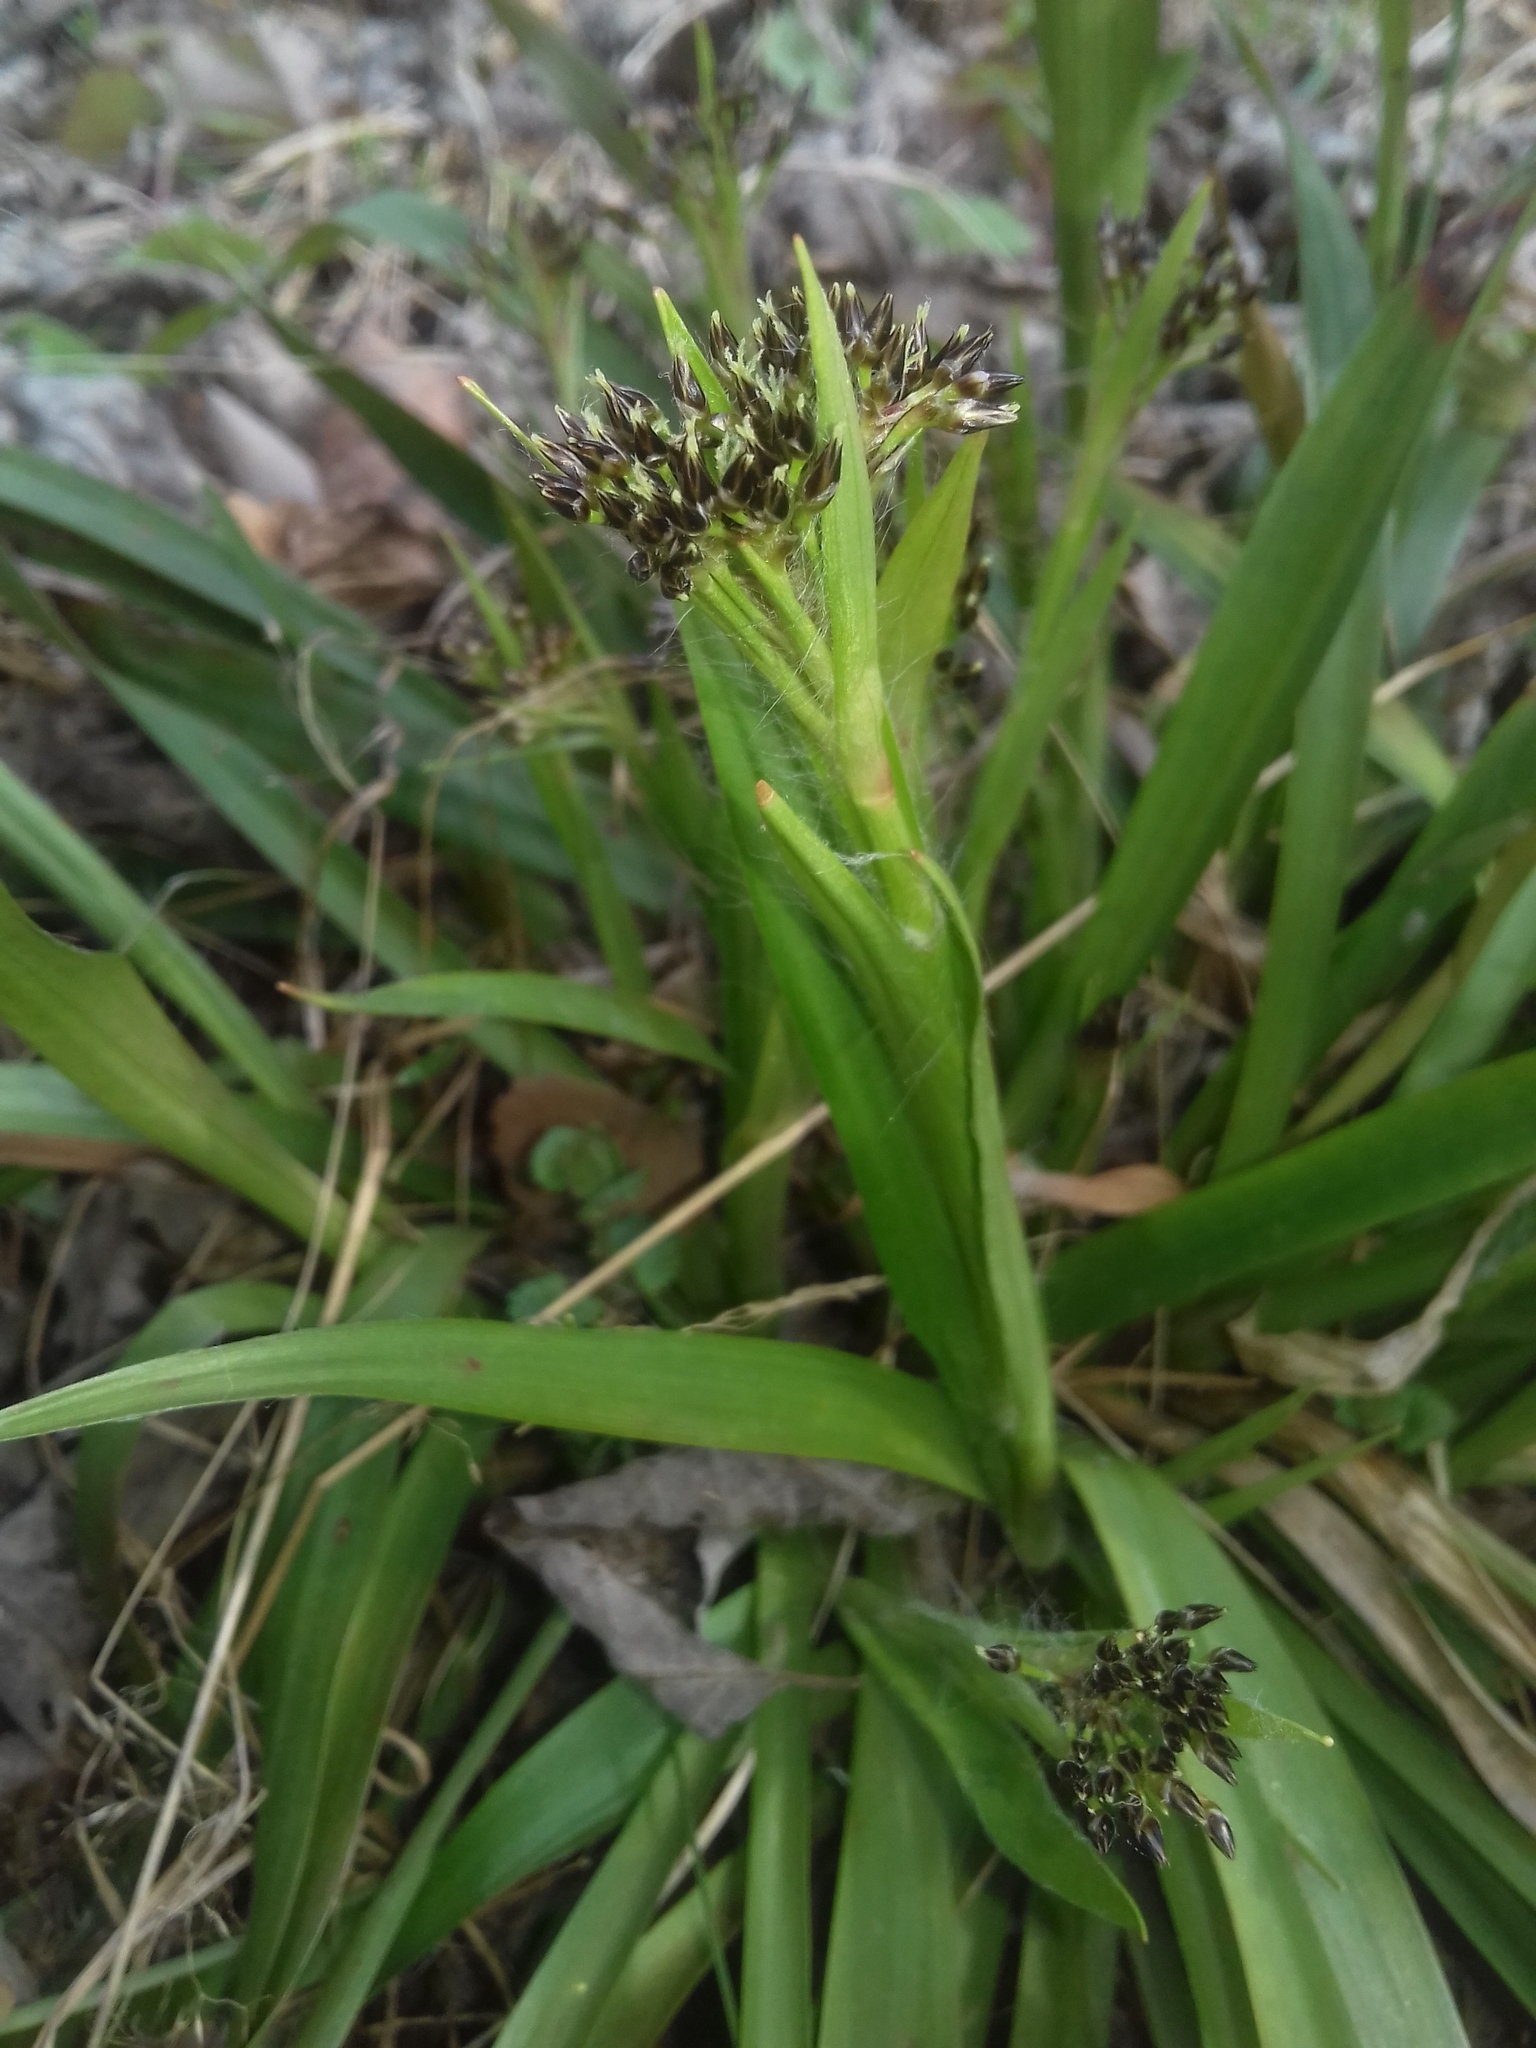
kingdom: Plantae
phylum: Tracheophyta
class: Liliopsida
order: Poales
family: Juncaceae
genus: Luzula
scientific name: Luzula pilosa
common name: Hairy wood-rush
